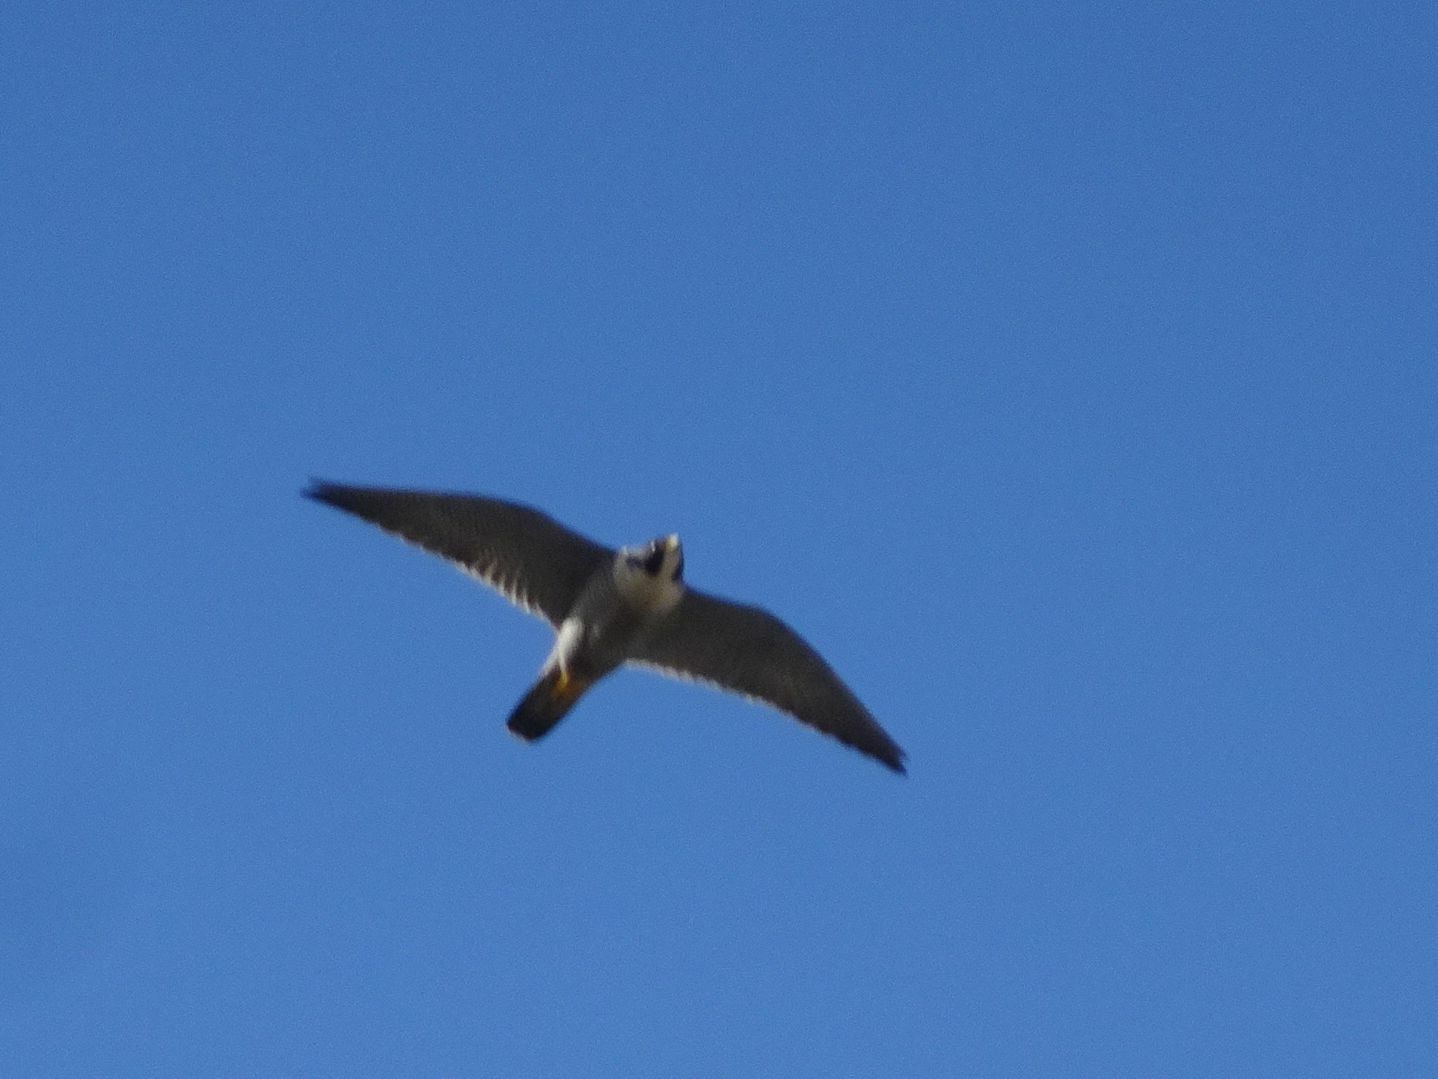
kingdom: Animalia
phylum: Chordata
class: Aves
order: Falconiformes
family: Falconidae
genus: Falco
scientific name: Falco peregrinus
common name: Peregrine falcon
